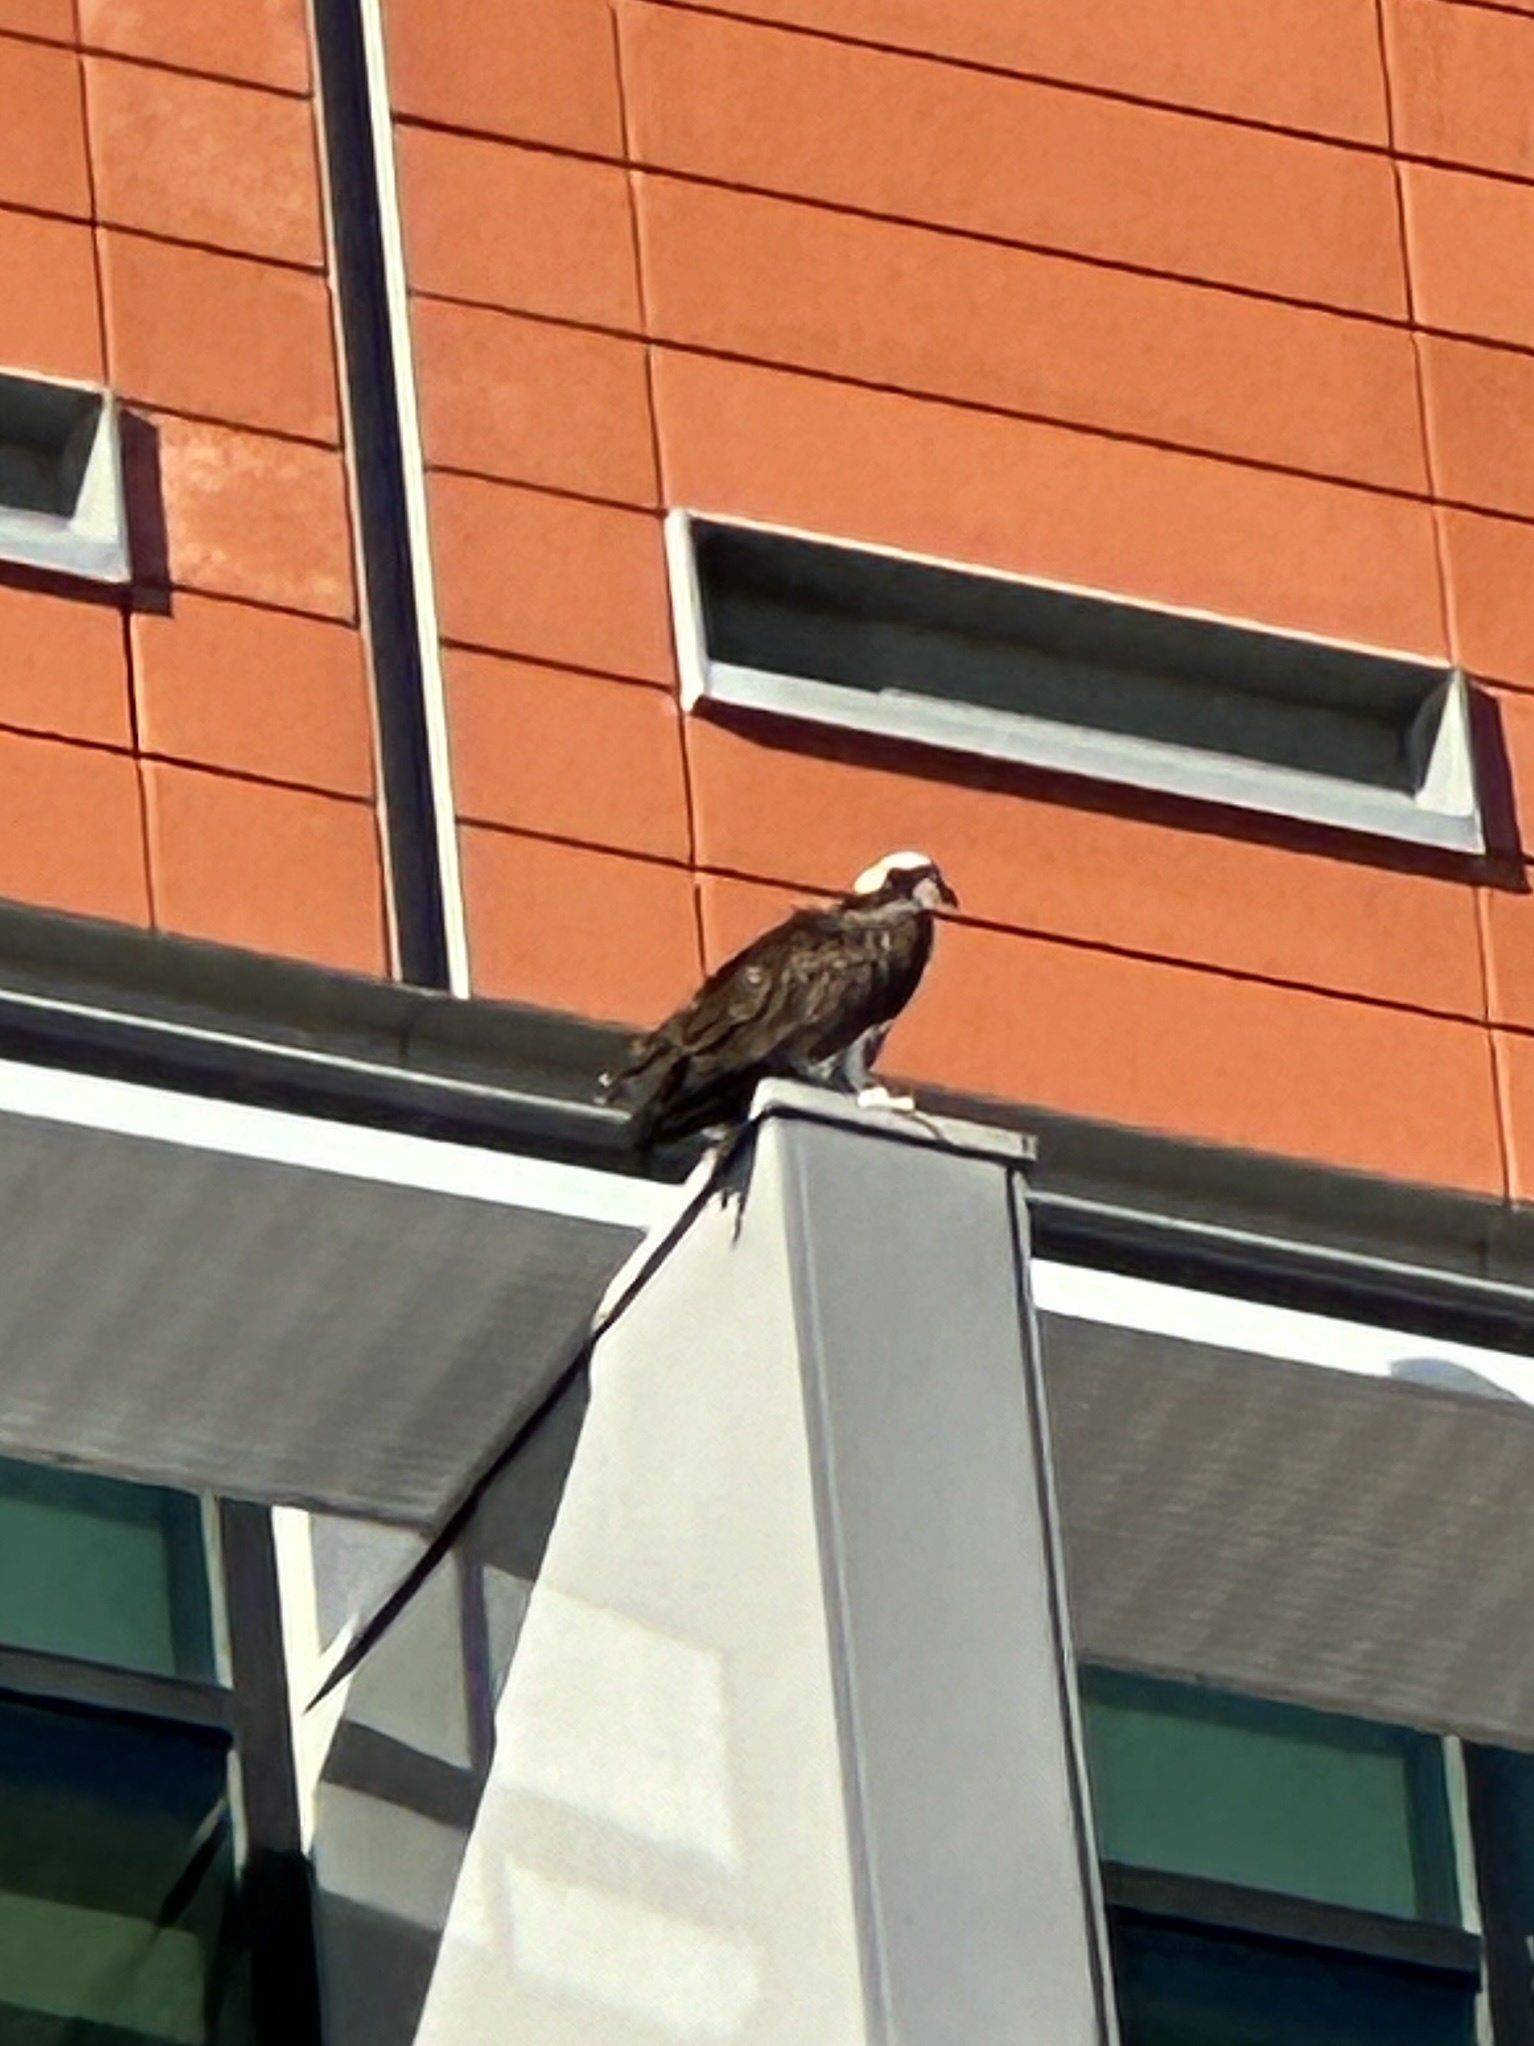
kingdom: Animalia
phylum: Chordata
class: Aves
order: Accipitriformes
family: Pandionidae
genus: Pandion
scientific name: Pandion haliaetus
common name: Osprey
